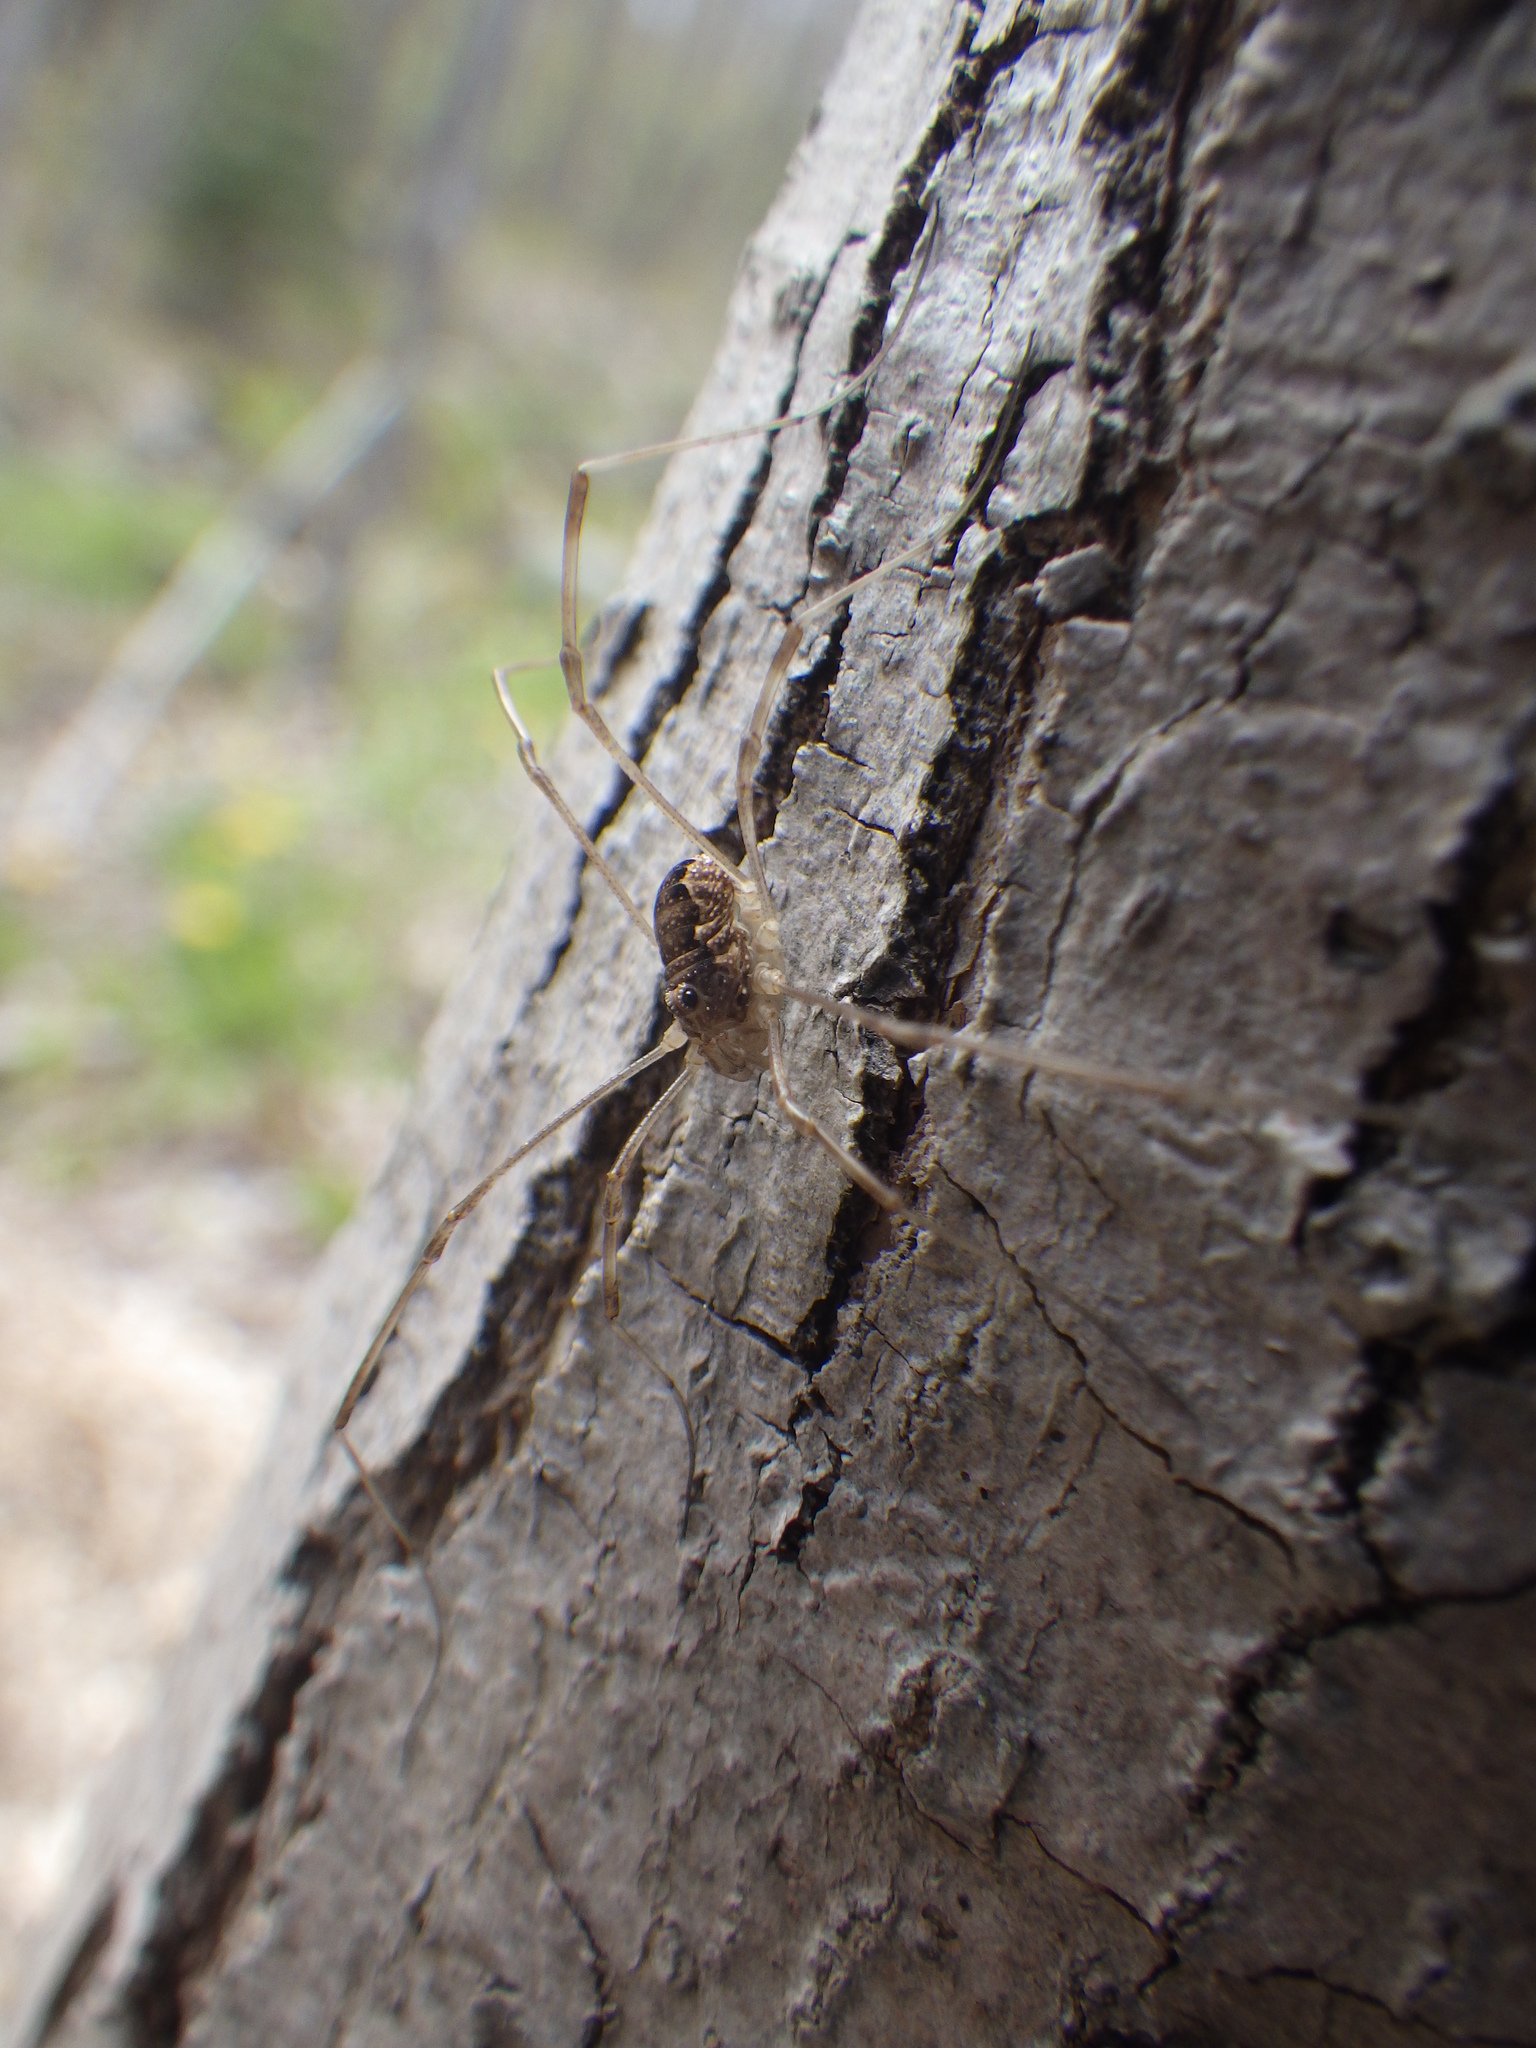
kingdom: Animalia
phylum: Arthropoda
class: Arachnida
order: Opiliones
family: Phalangiidae
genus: Rilaena
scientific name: Rilaena triangularis
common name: Spring harvestman
